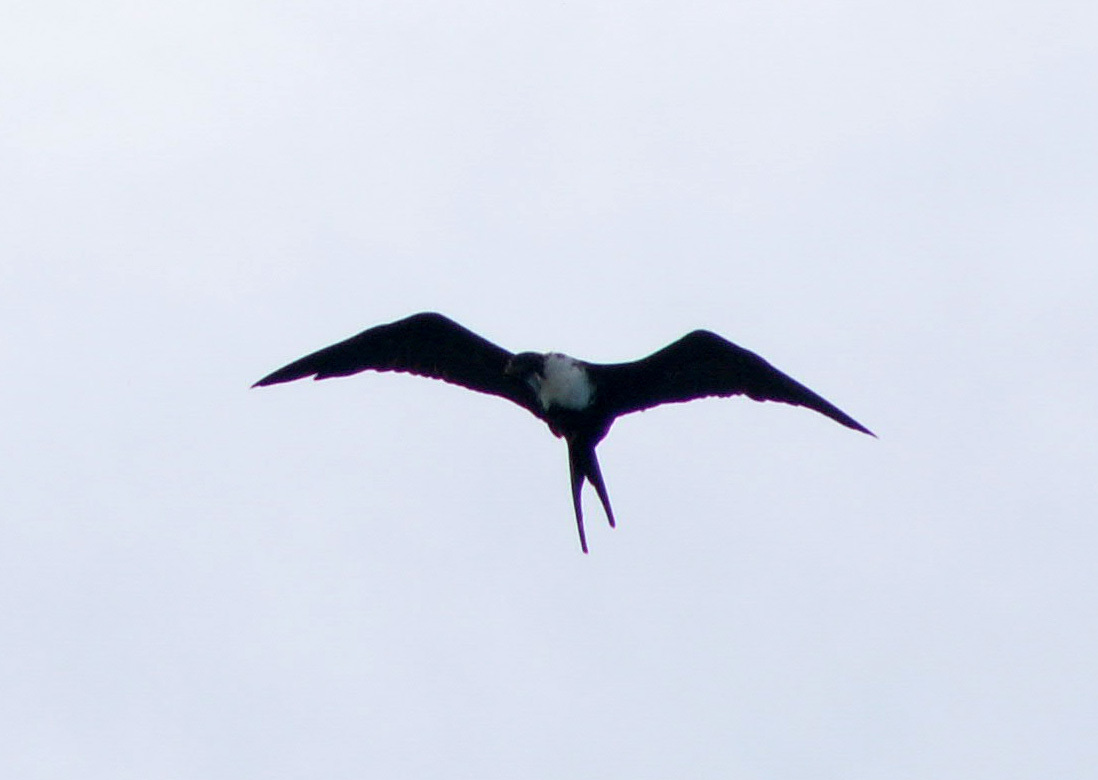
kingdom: Animalia
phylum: Chordata
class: Aves
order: Suliformes
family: Fregatidae
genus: Fregata
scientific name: Fregata magnificens
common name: Magnificent frigatebird
